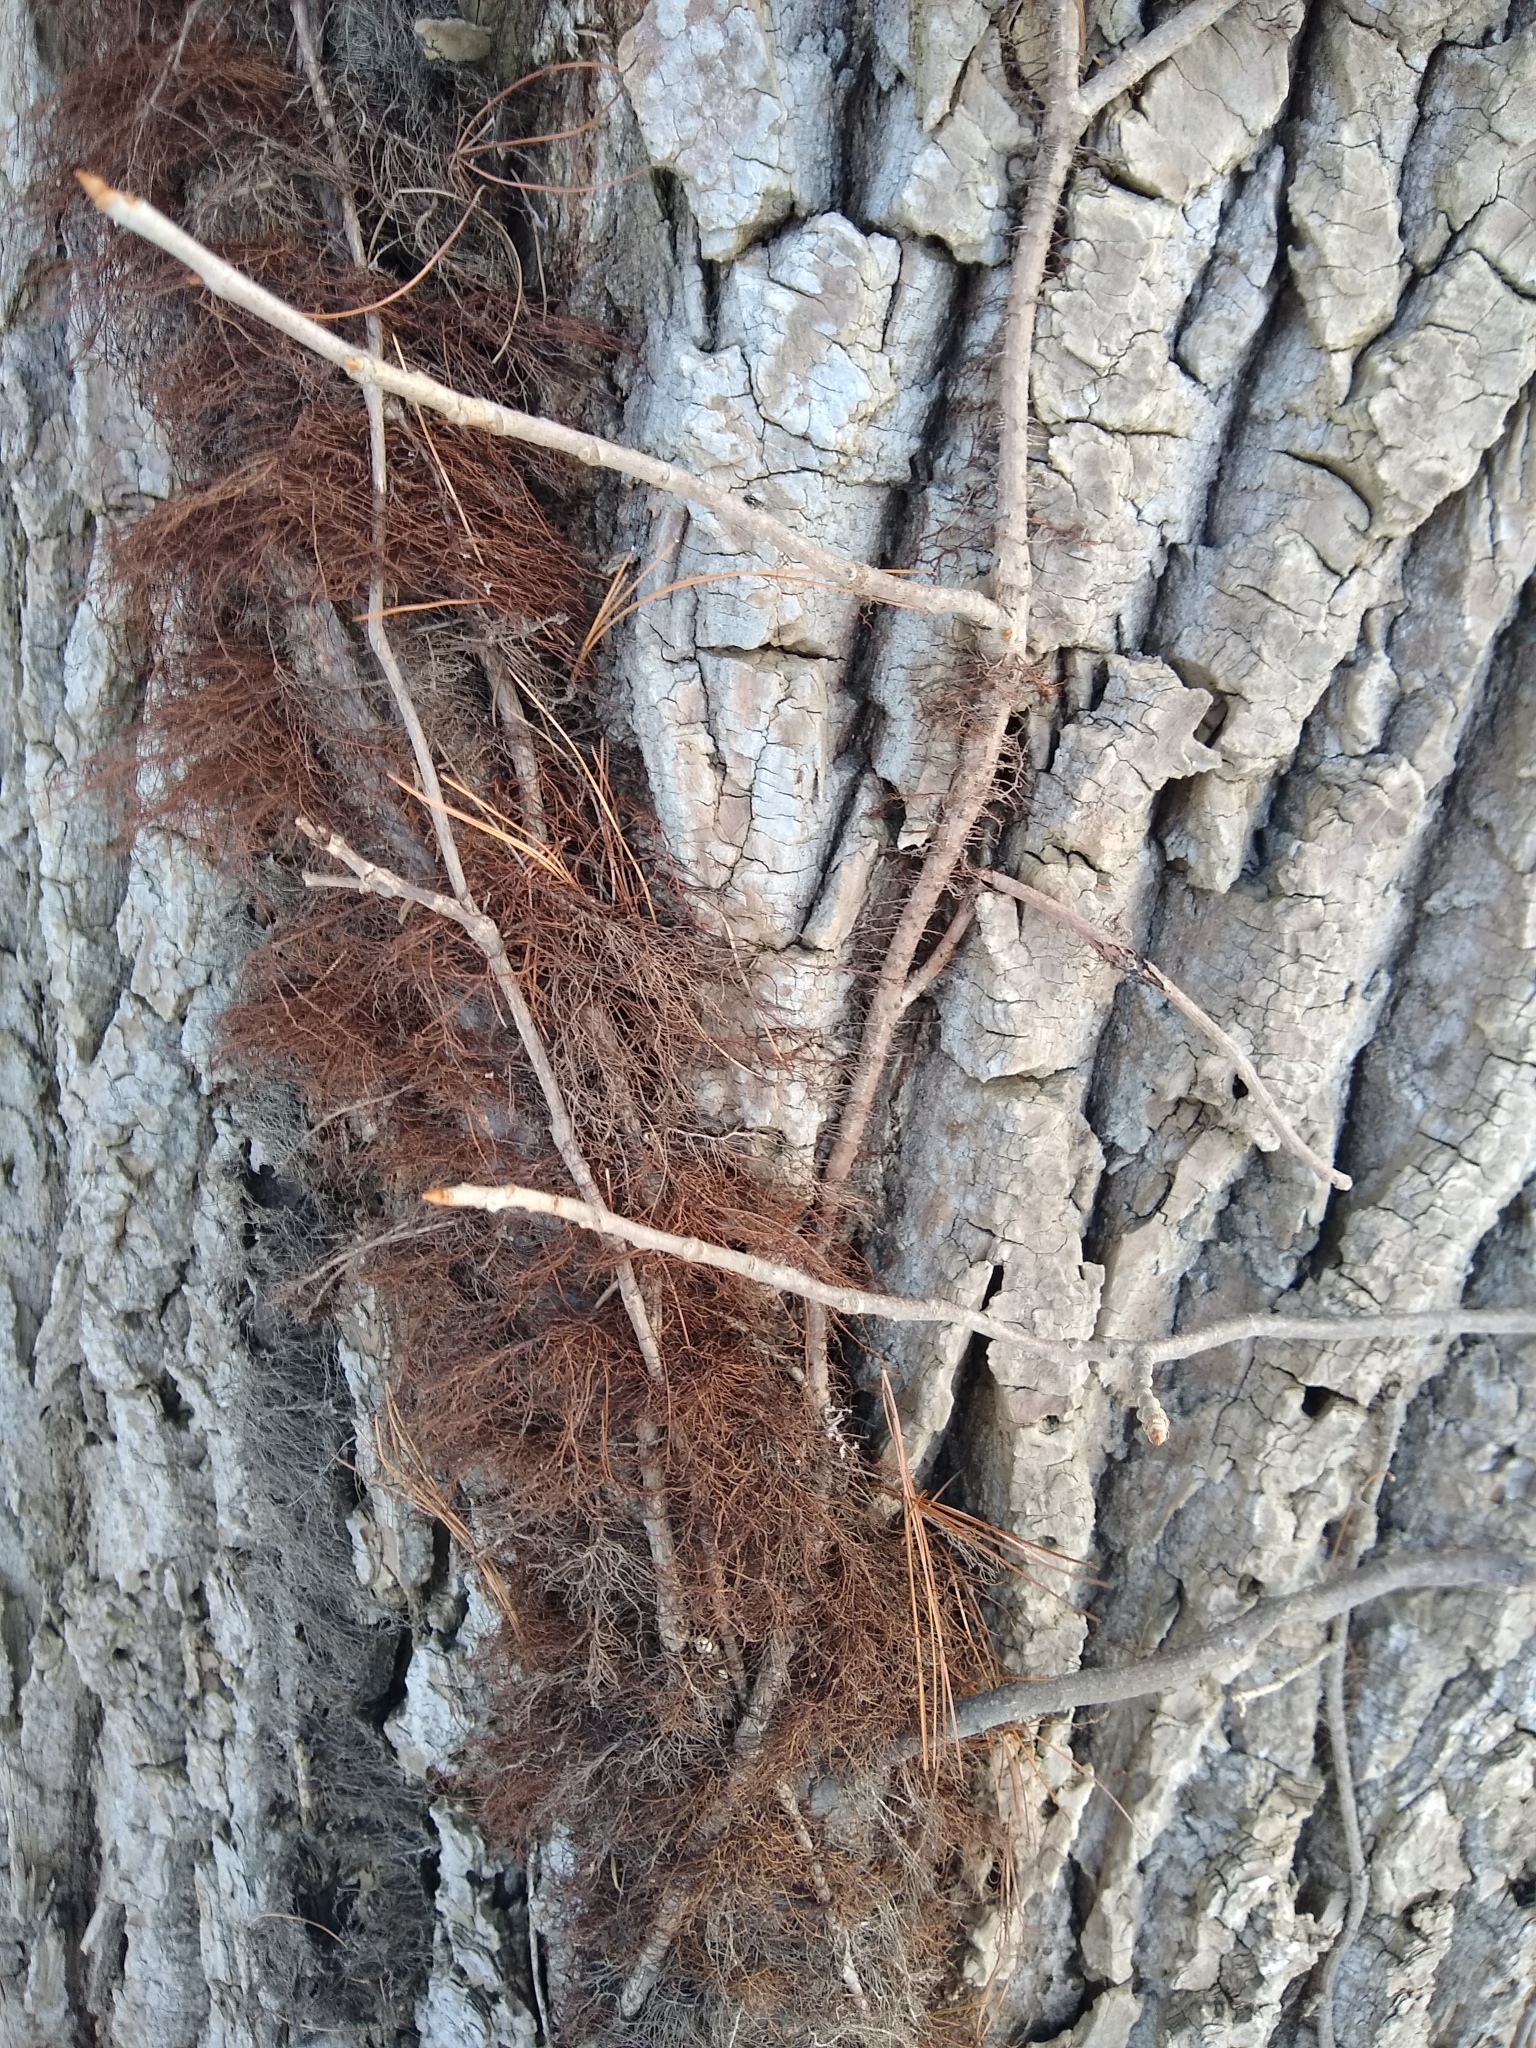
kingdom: Plantae
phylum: Tracheophyta
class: Magnoliopsida
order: Sapindales
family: Anacardiaceae
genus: Toxicodendron
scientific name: Toxicodendron radicans
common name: Poison ivy
